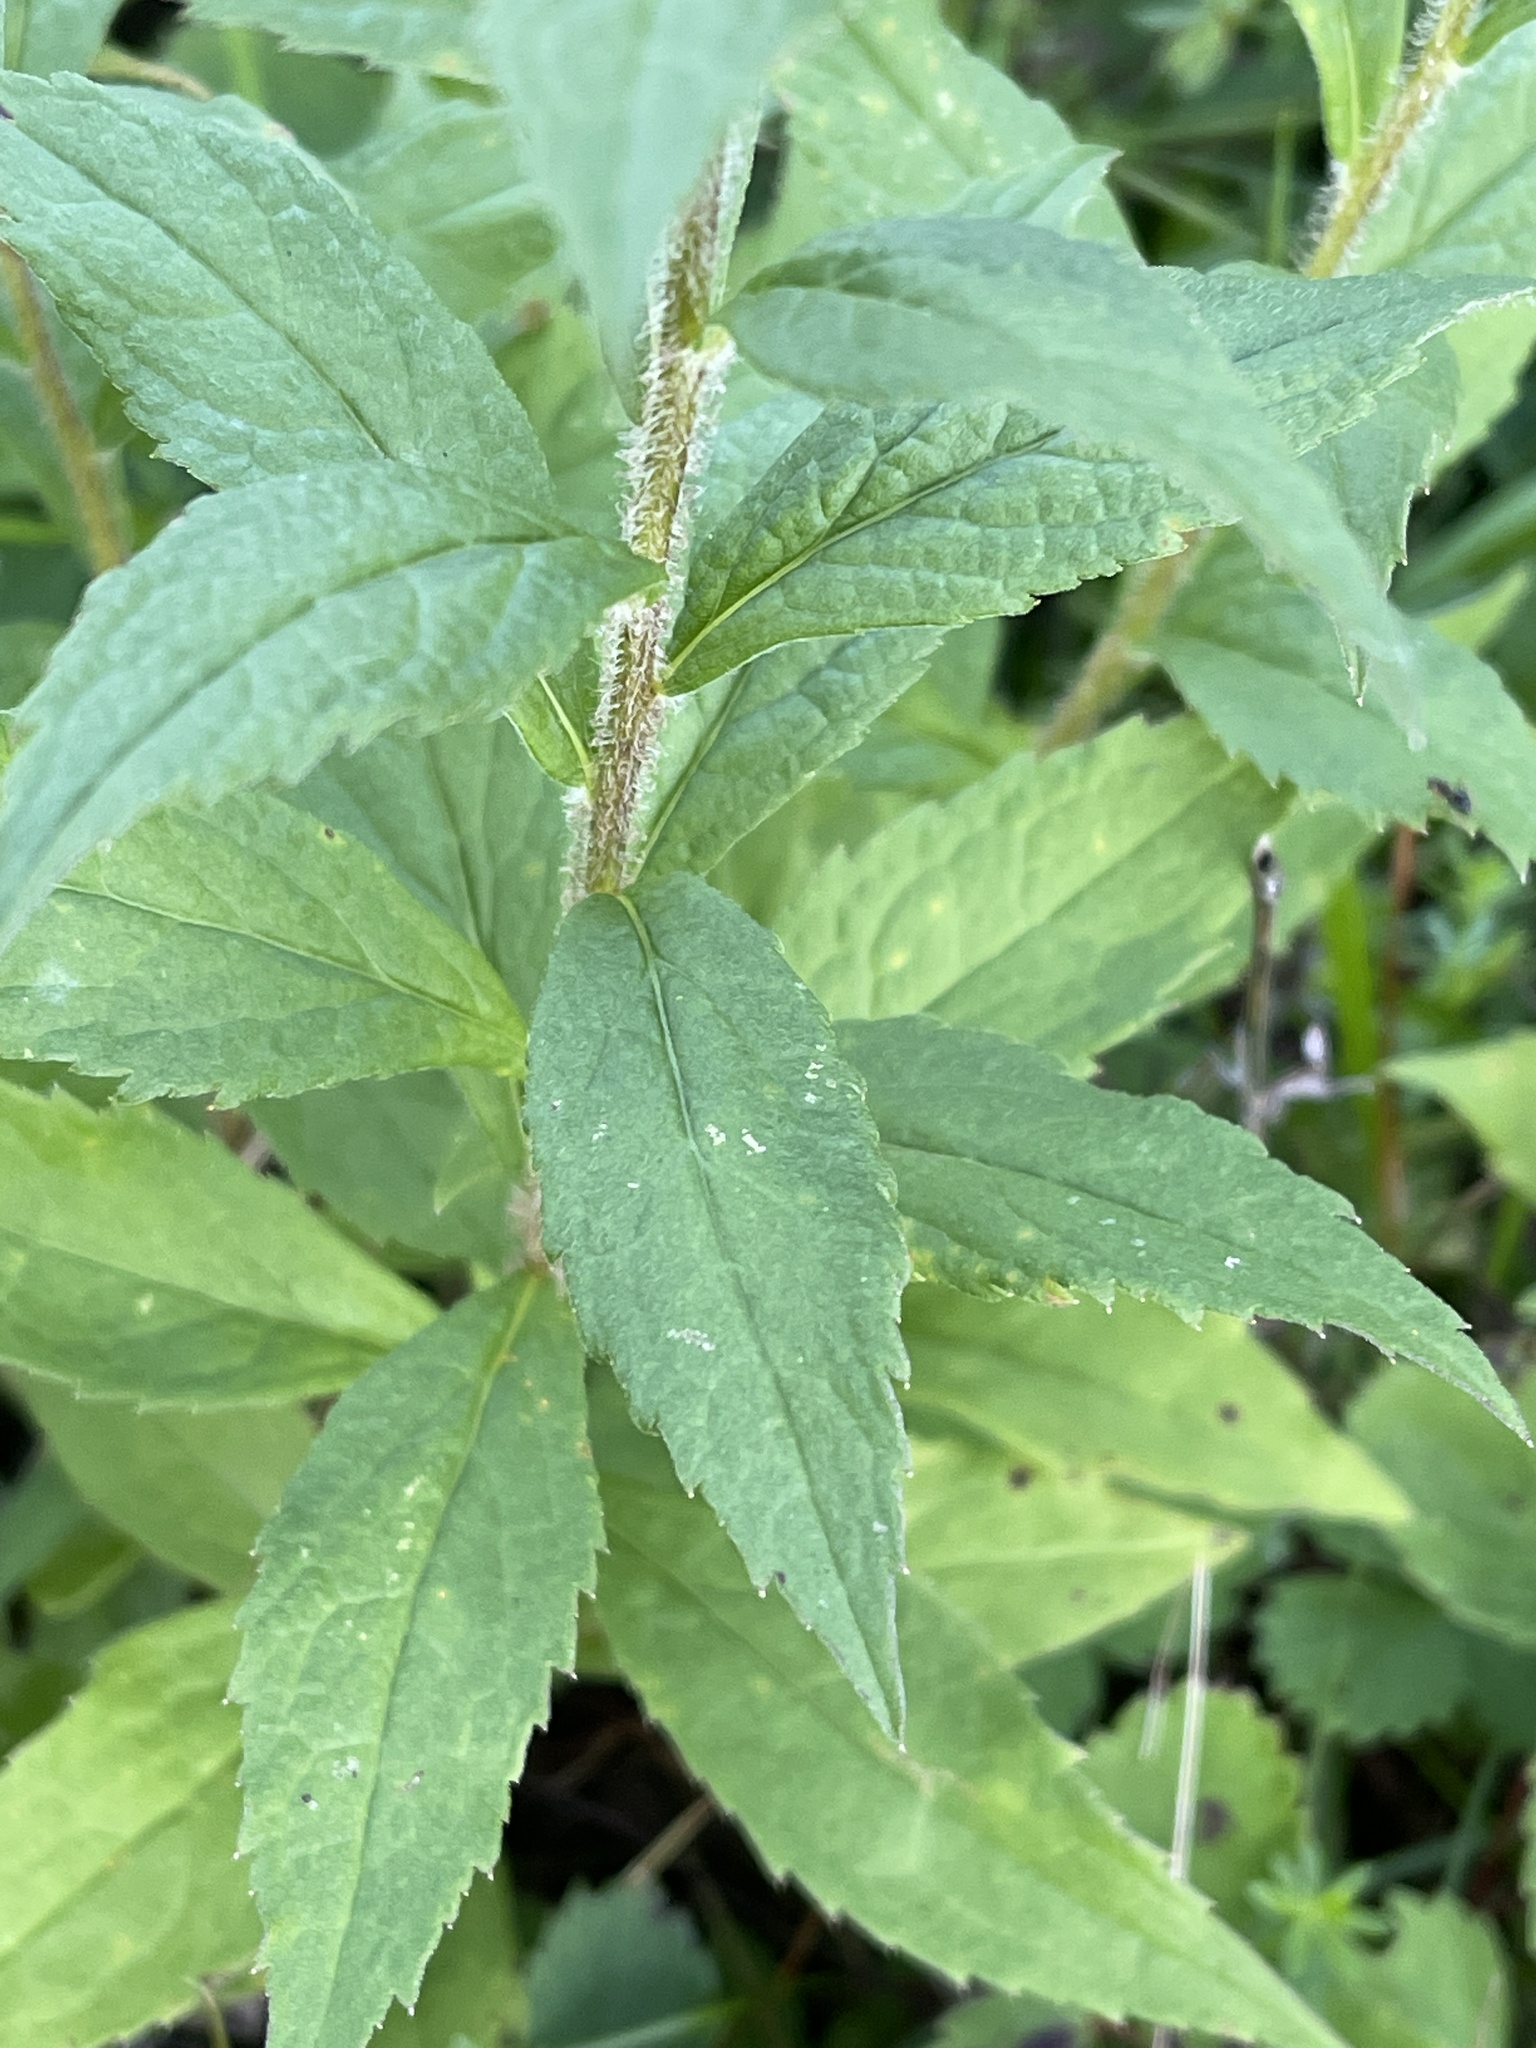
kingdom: Plantae
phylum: Tracheophyta
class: Magnoliopsida
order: Asterales
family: Asteraceae
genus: Solidago
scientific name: Solidago rugosa
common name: Rough-stemmed goldenrod
